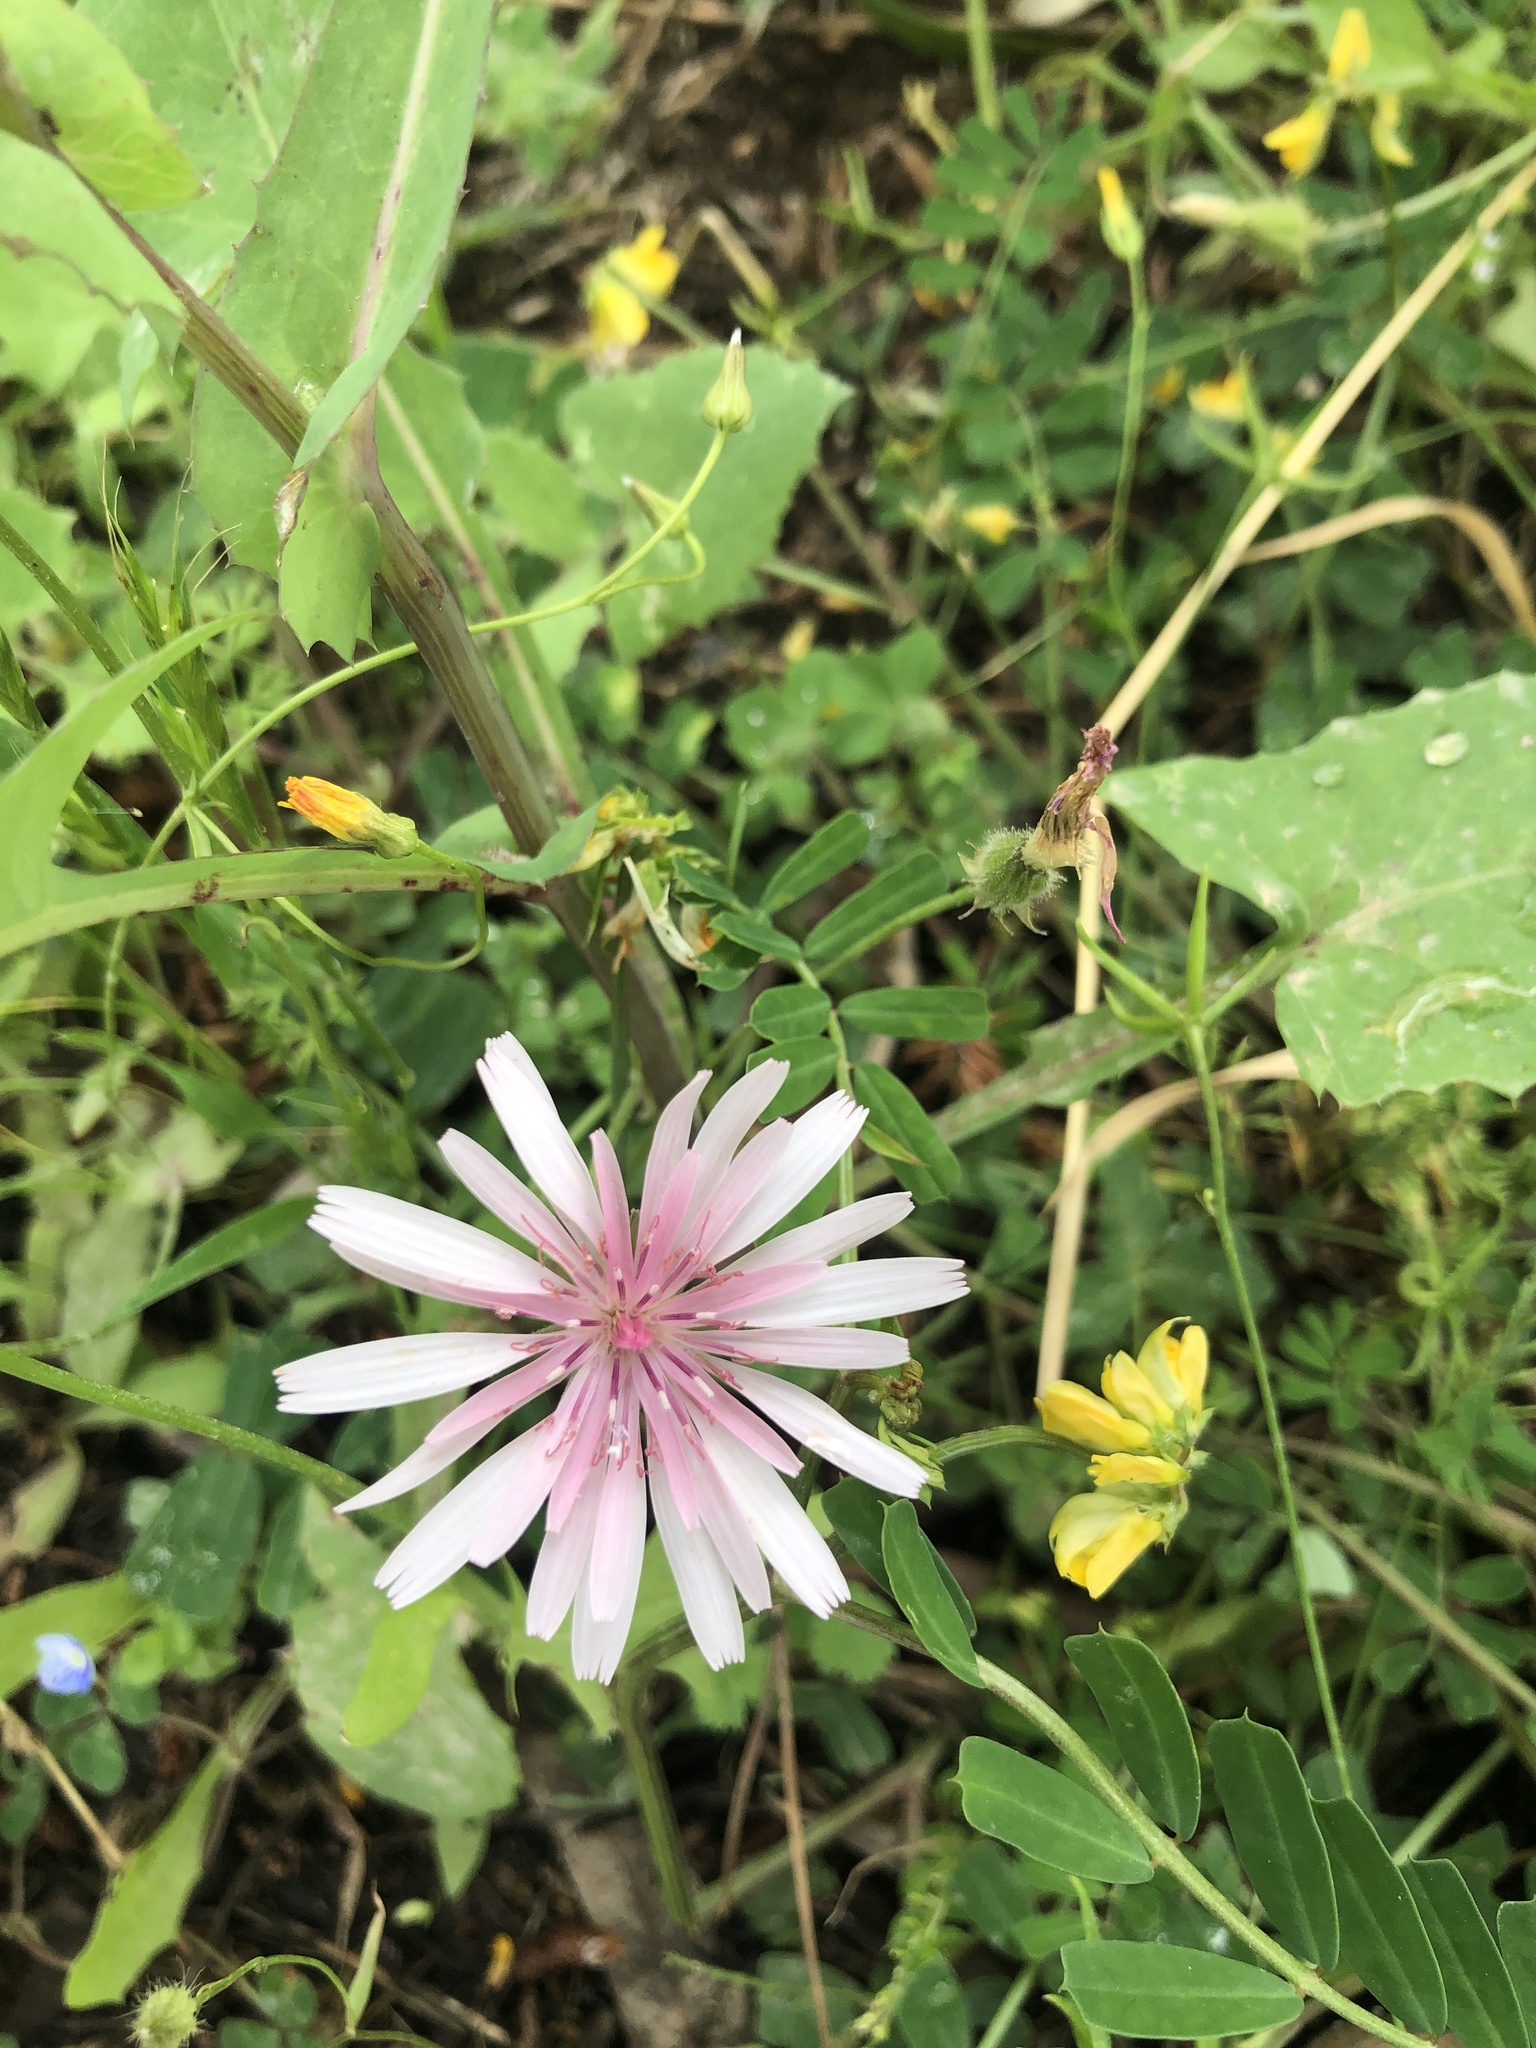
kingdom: Plantae
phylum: Tracheophyta
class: Magnoliopsida
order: Asterales
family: Asteraceae
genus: Crepis
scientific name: Crepis rubra
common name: Pink hawk's-beard
